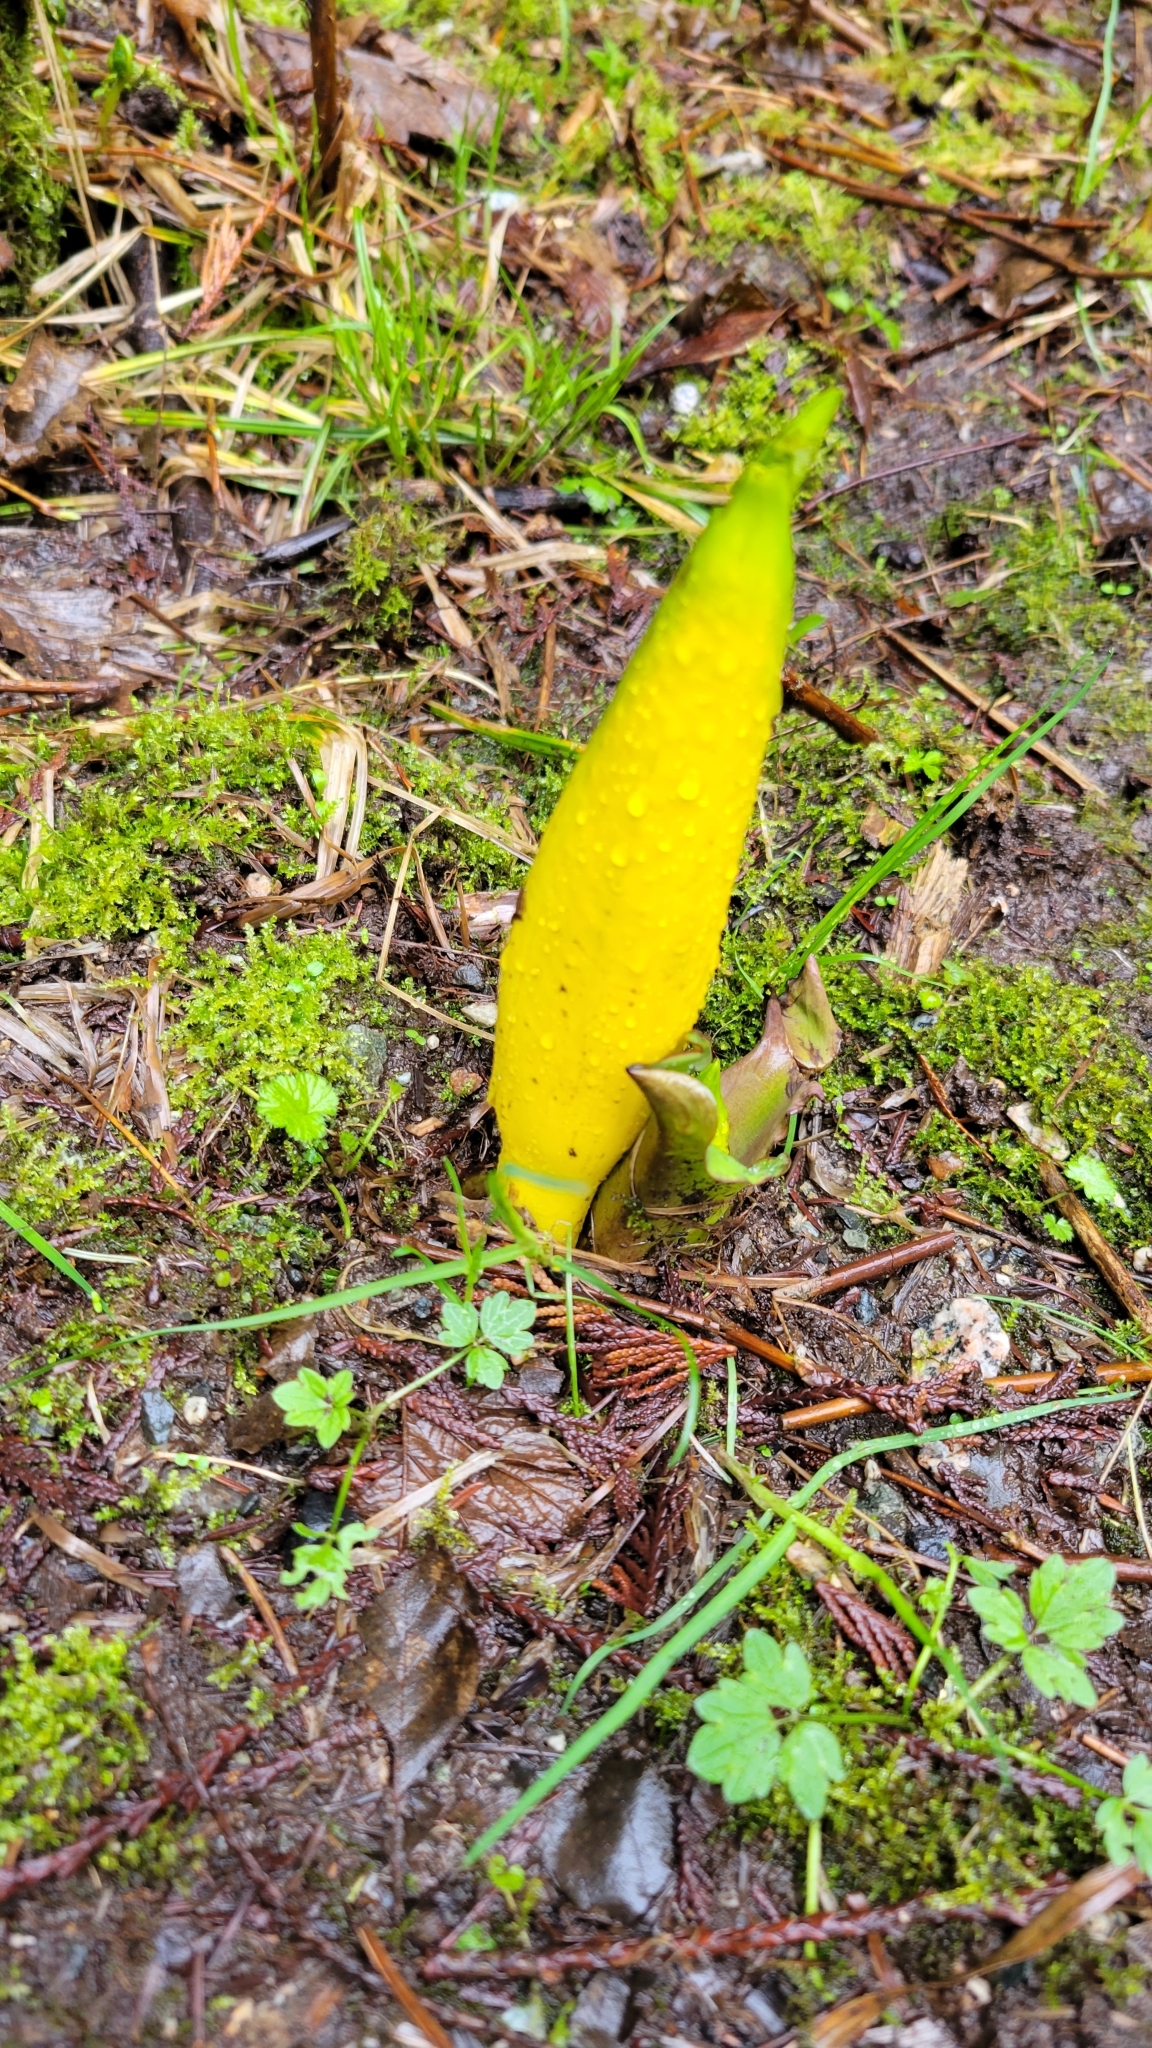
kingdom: Plantae
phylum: Tracheophyta
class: Liliopsida
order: Alismatales
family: Araceae
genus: Lysichiton
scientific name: Lysichiton americanus
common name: American skunk cabbage
